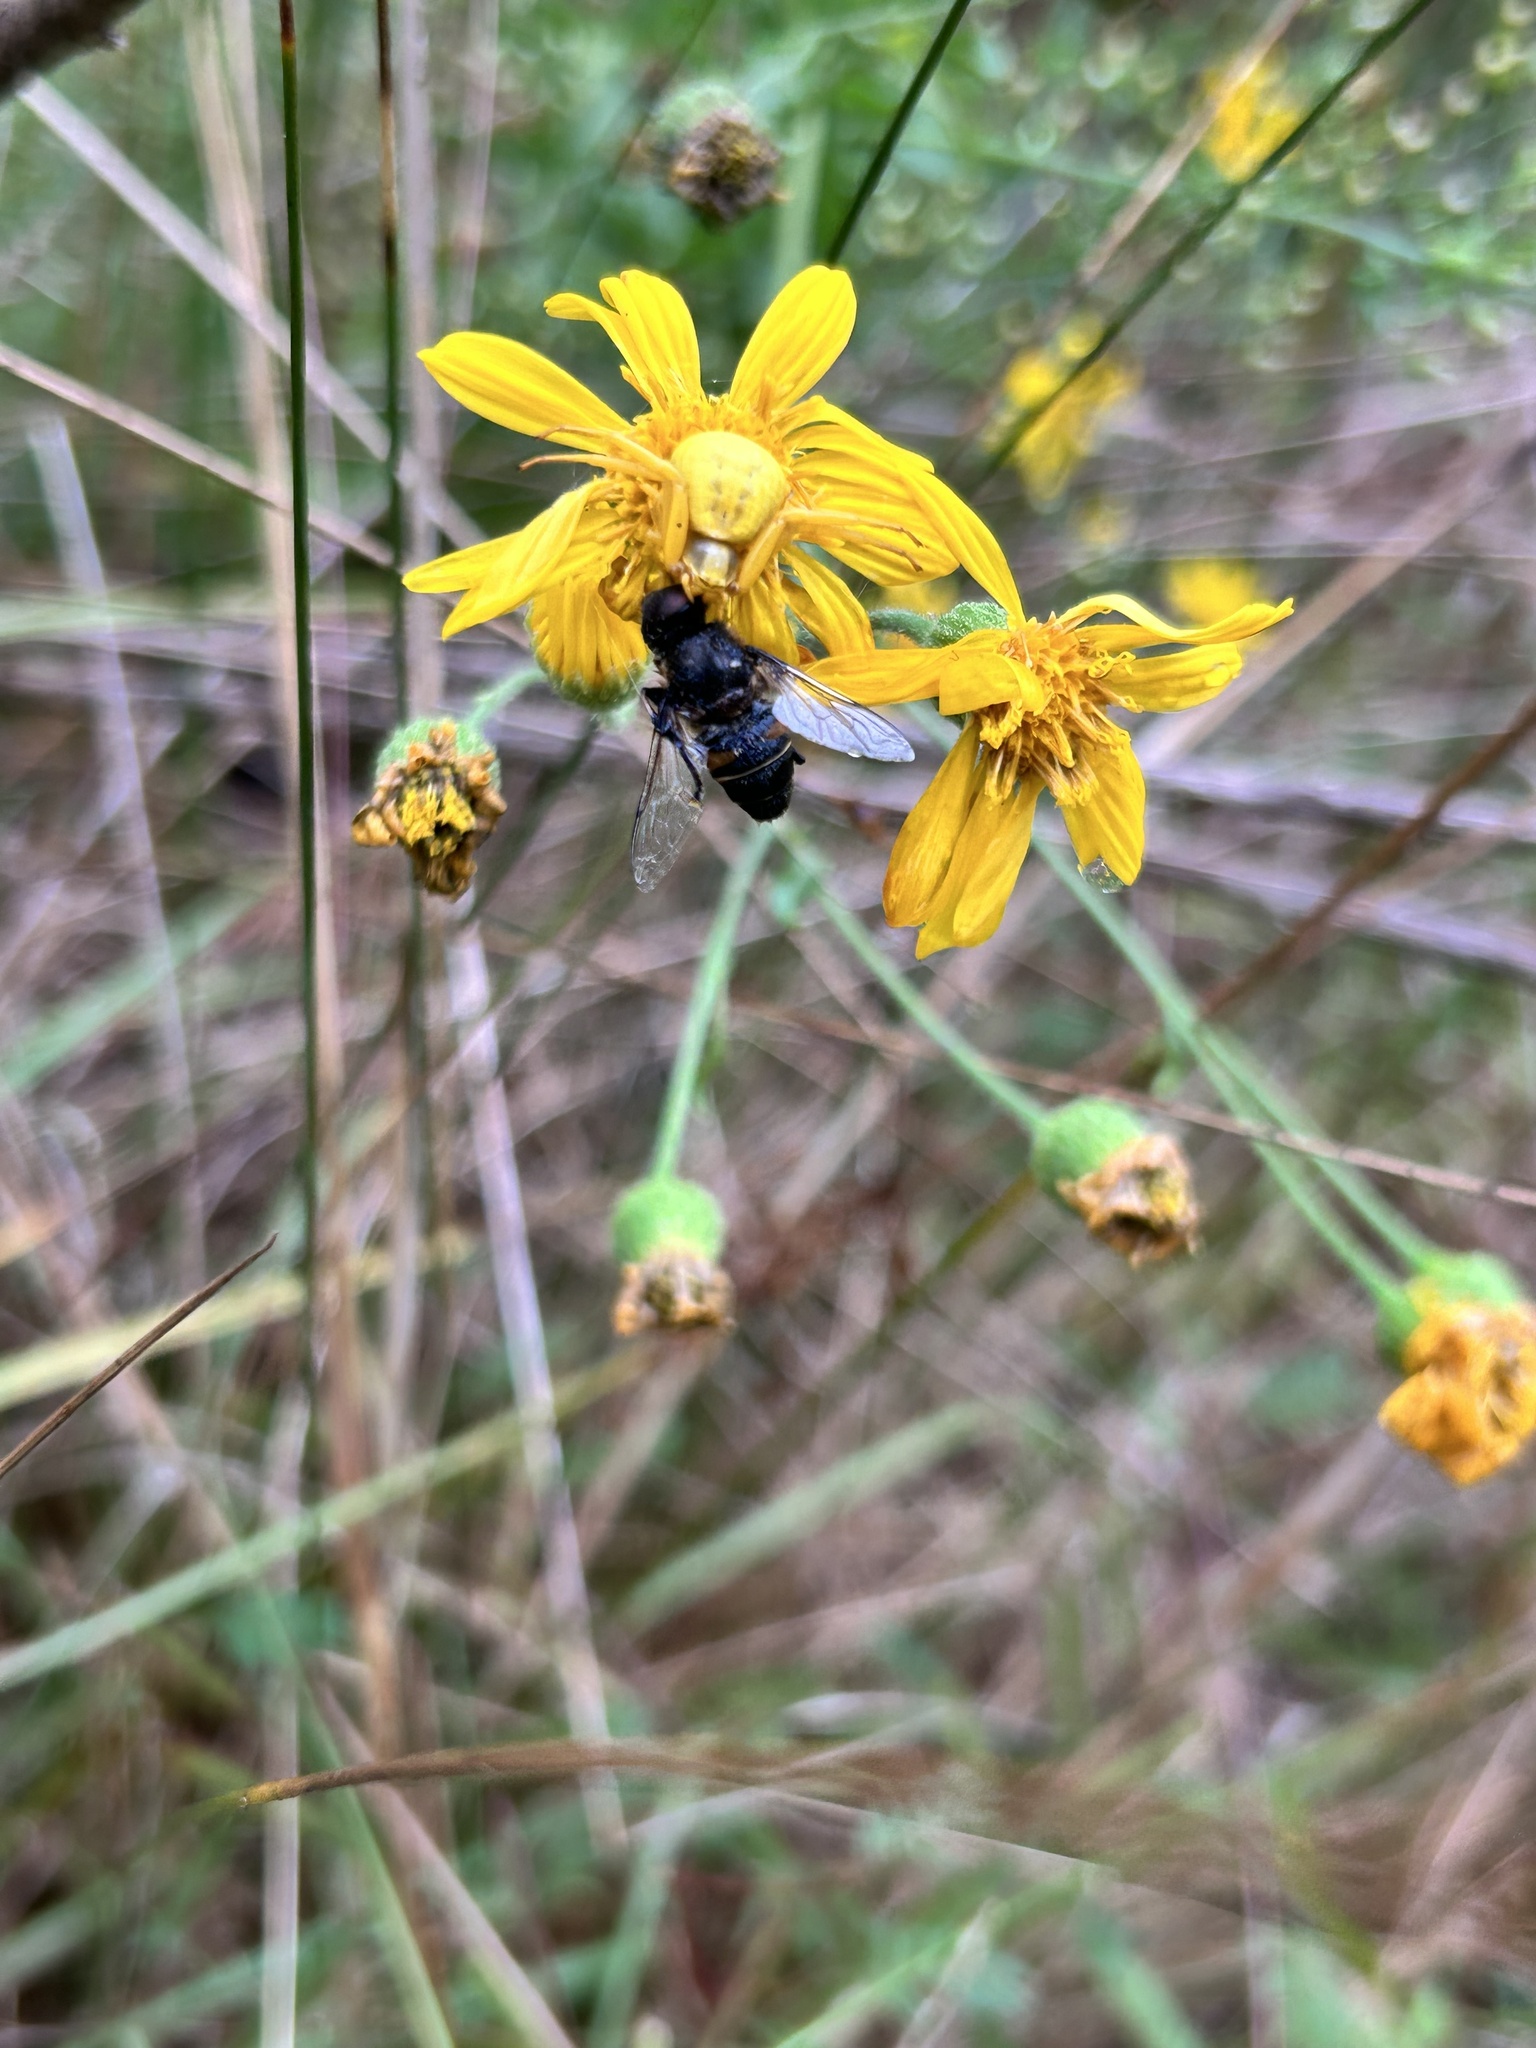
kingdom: Animalia
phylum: Arthropoda
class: Insecta
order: Diptera
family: Syrphidae
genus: Eristalis
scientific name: Eristalis dimidiata
